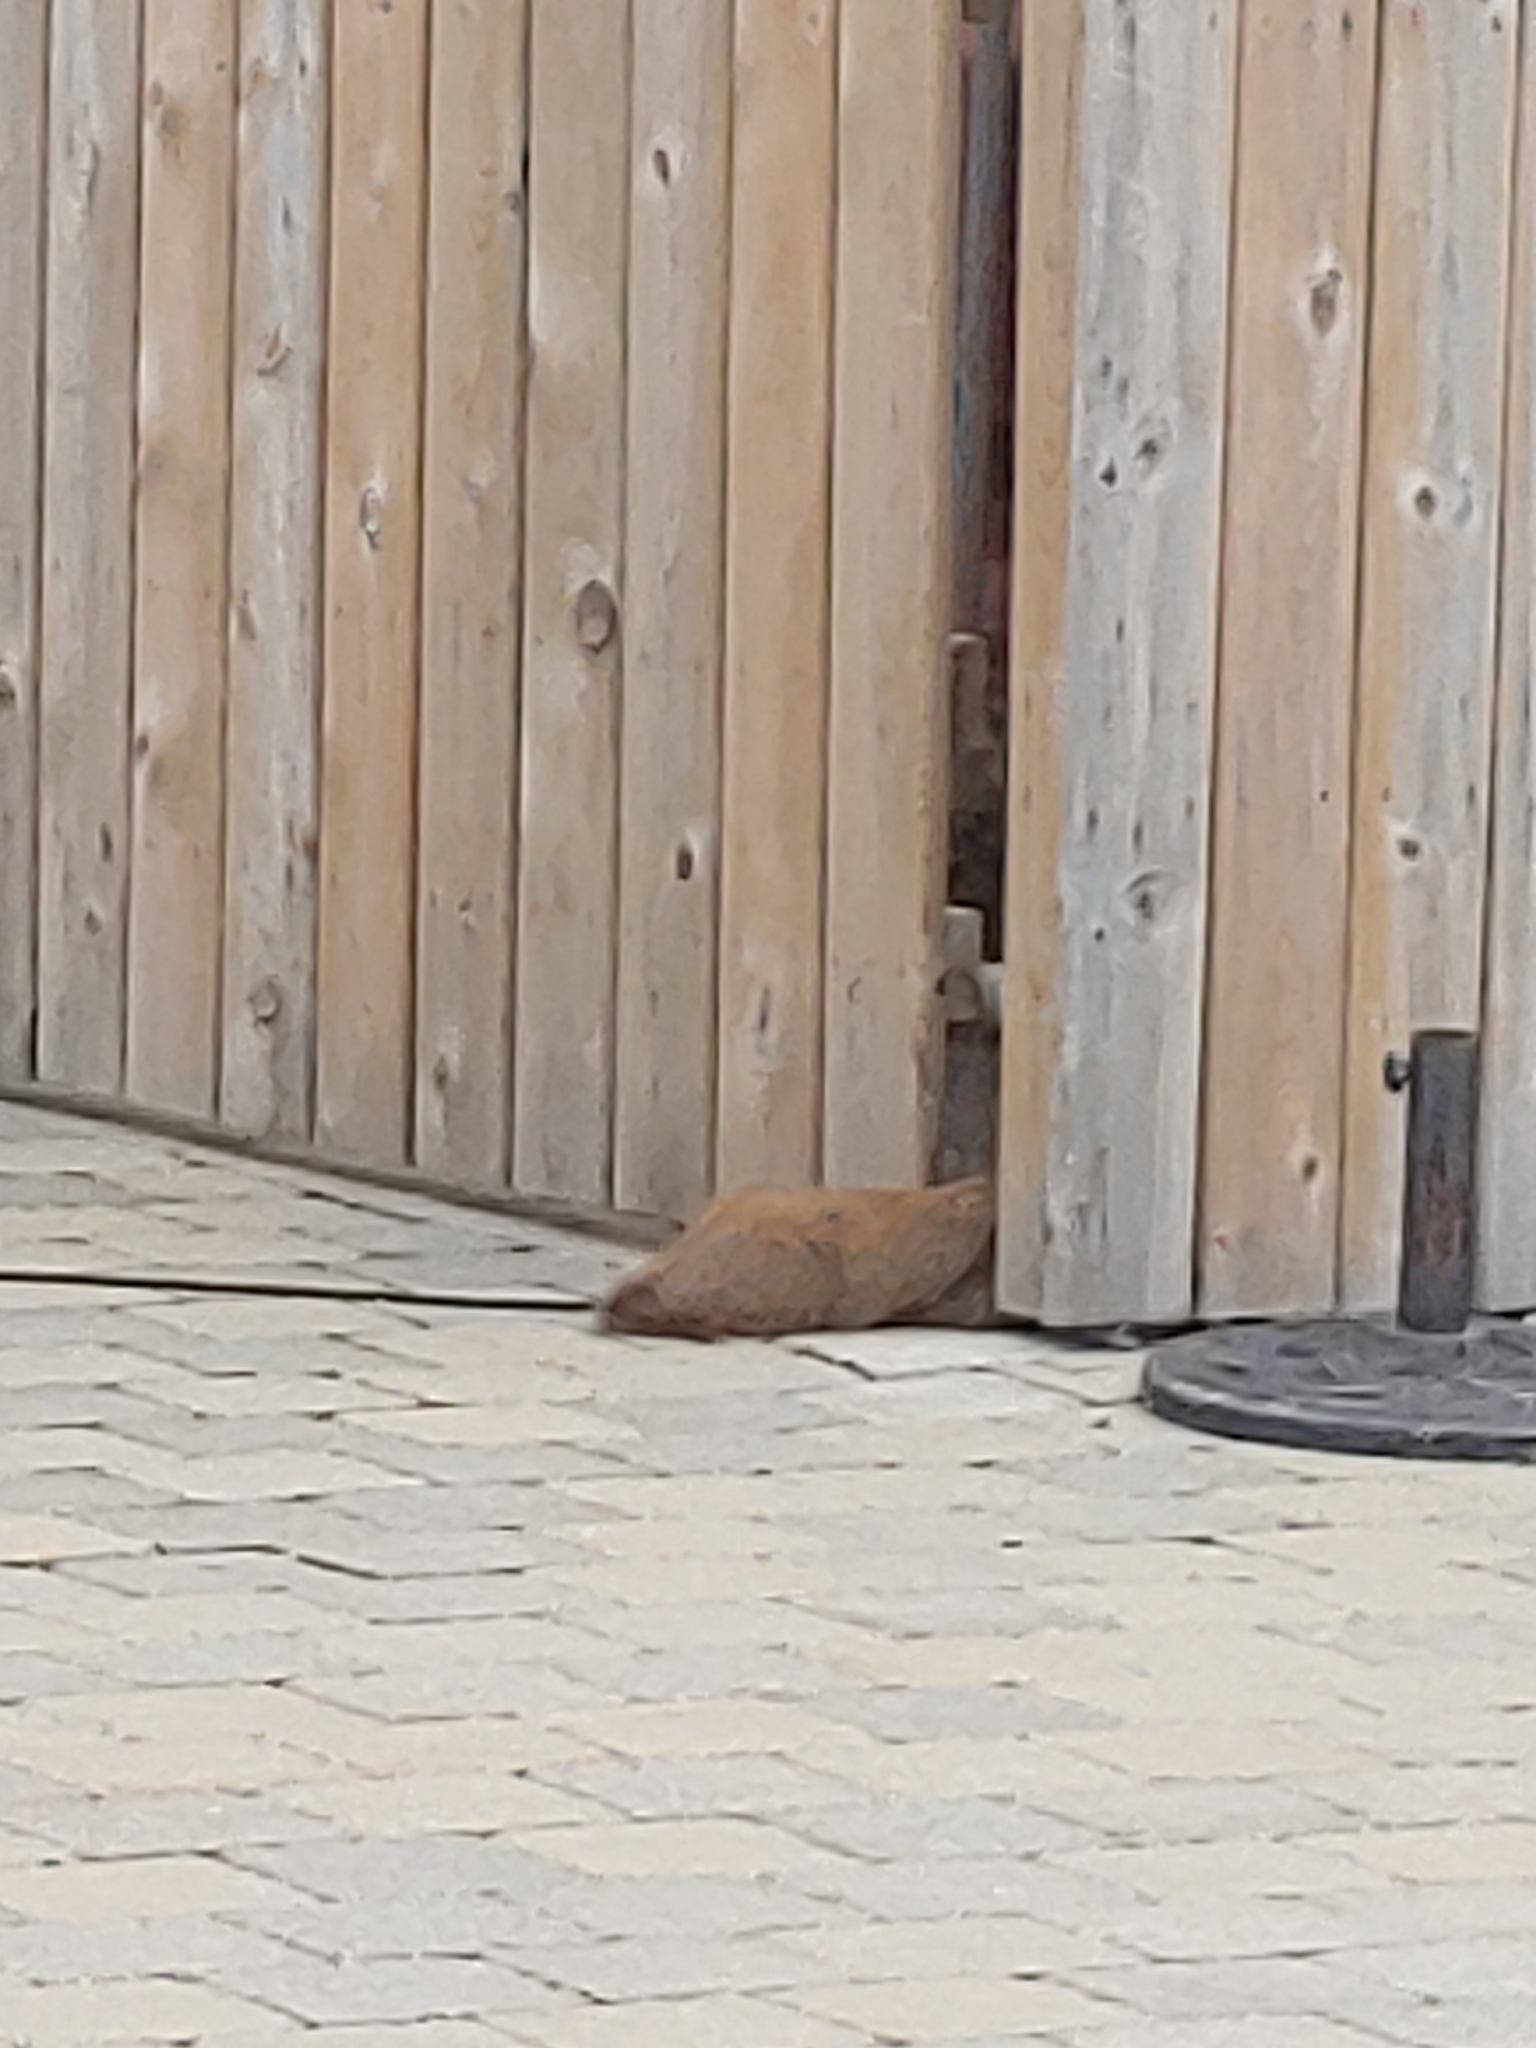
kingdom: Animalia
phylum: Chordata
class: Mammalia
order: Rodentia
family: Sciuridae
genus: Marmota
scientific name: Marmota monax
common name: Groundhog
